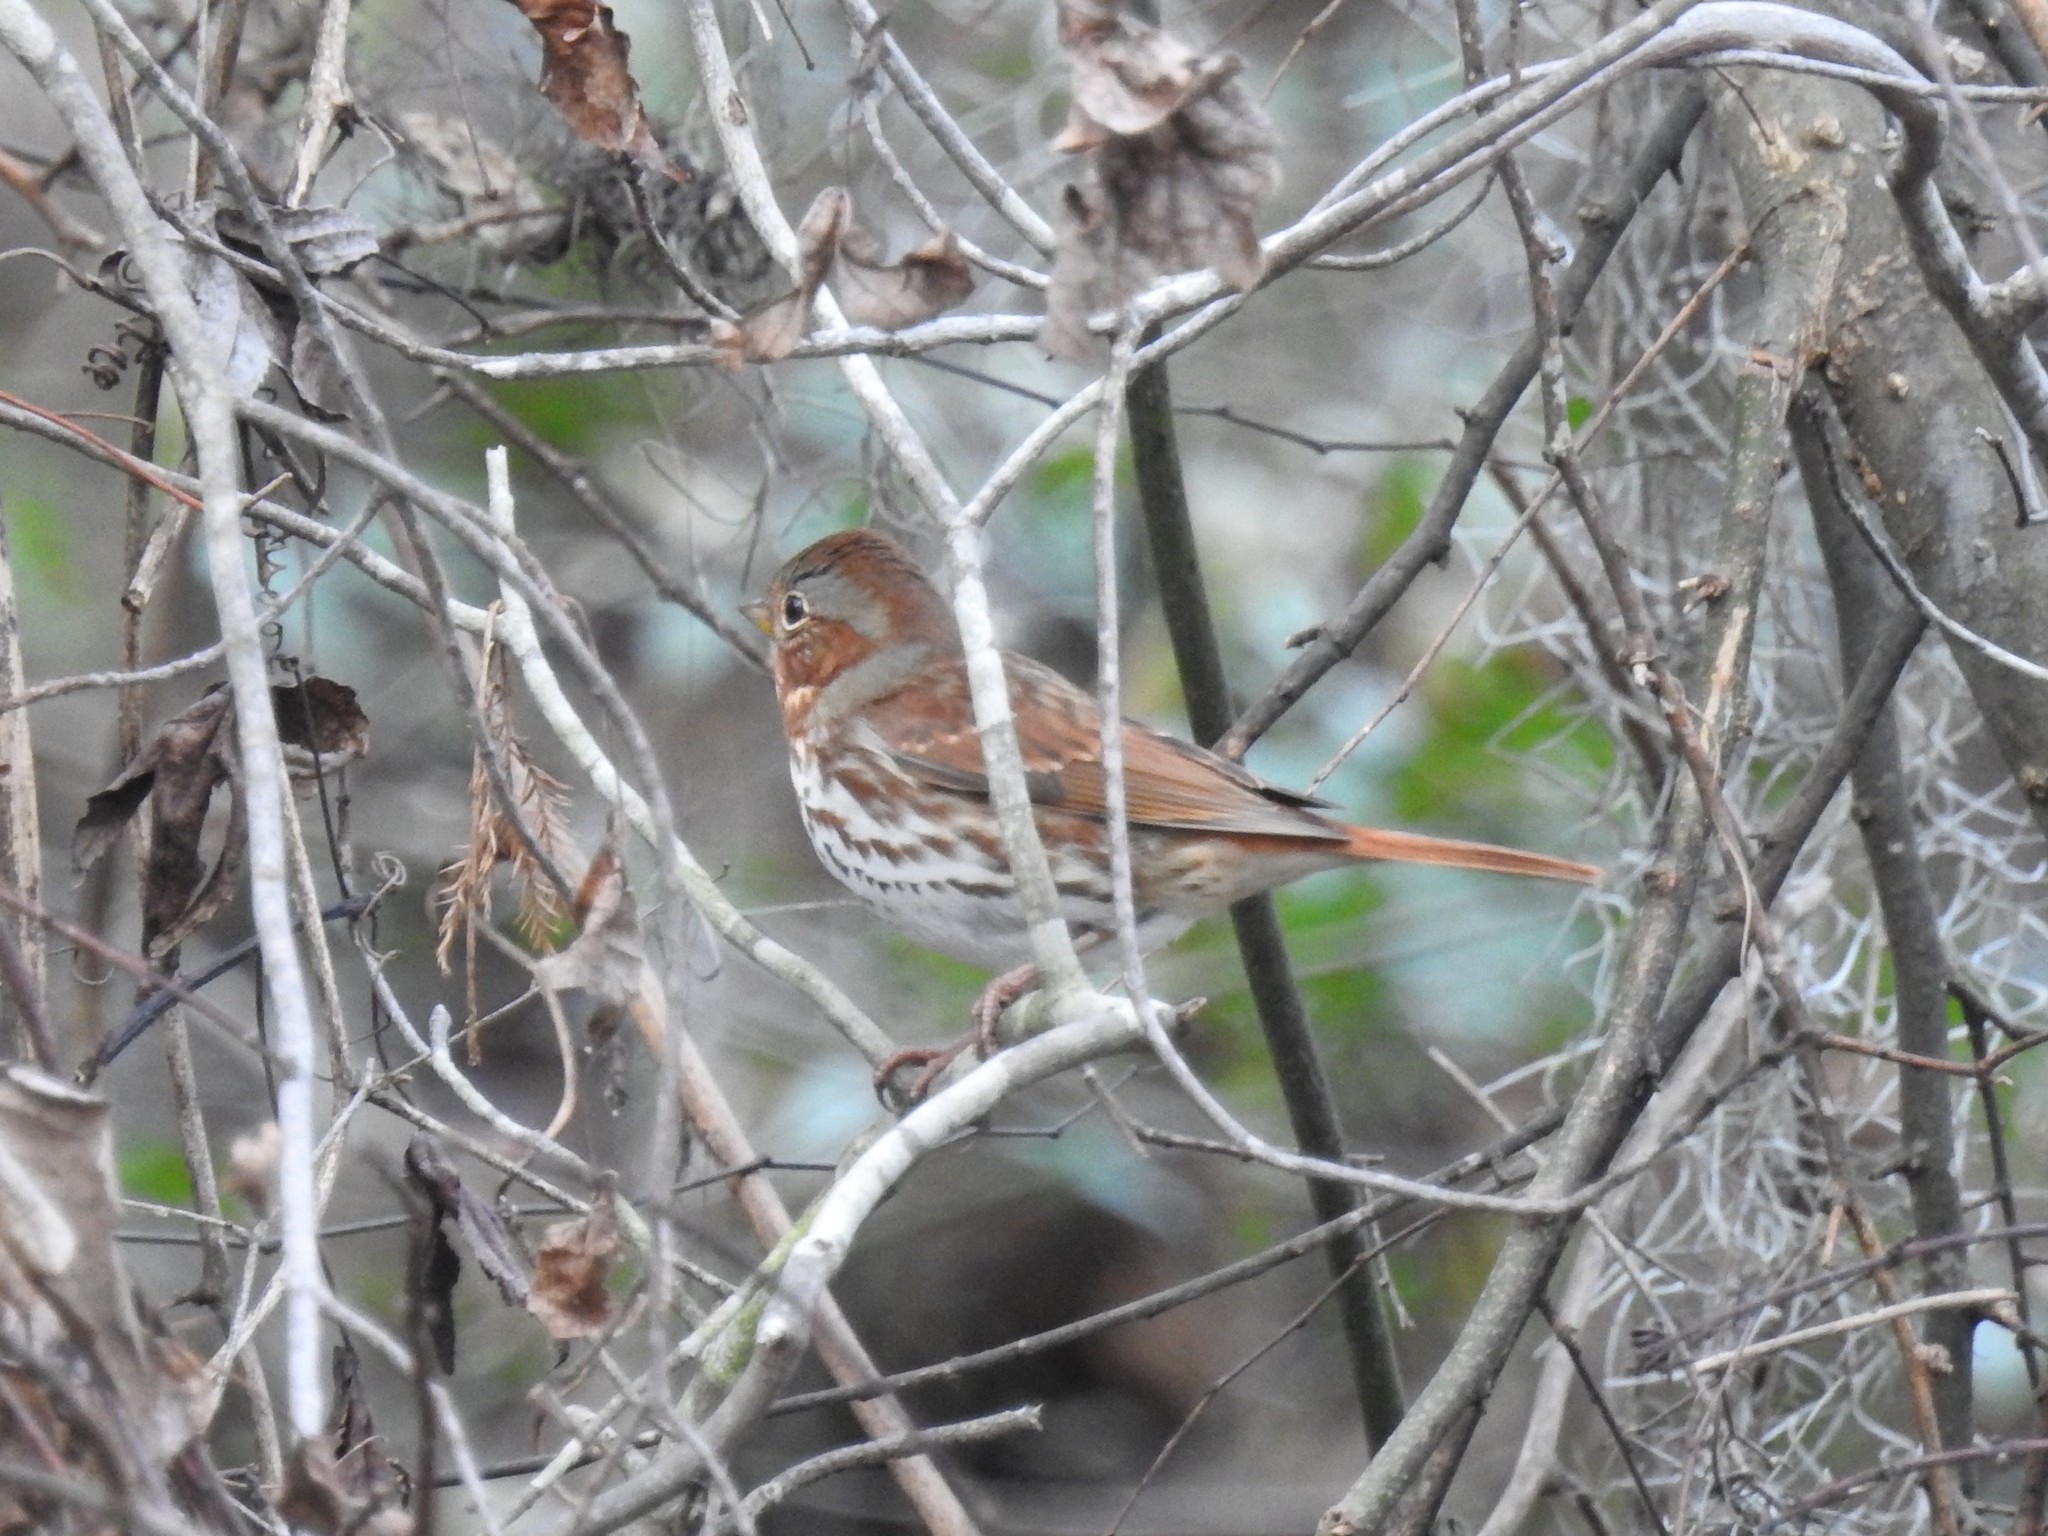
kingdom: Animalia
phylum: Chordata
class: Aves
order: Passeriformes
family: Passerellidae
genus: Passerella
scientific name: Passerella iliaca
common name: Fox sparrow
